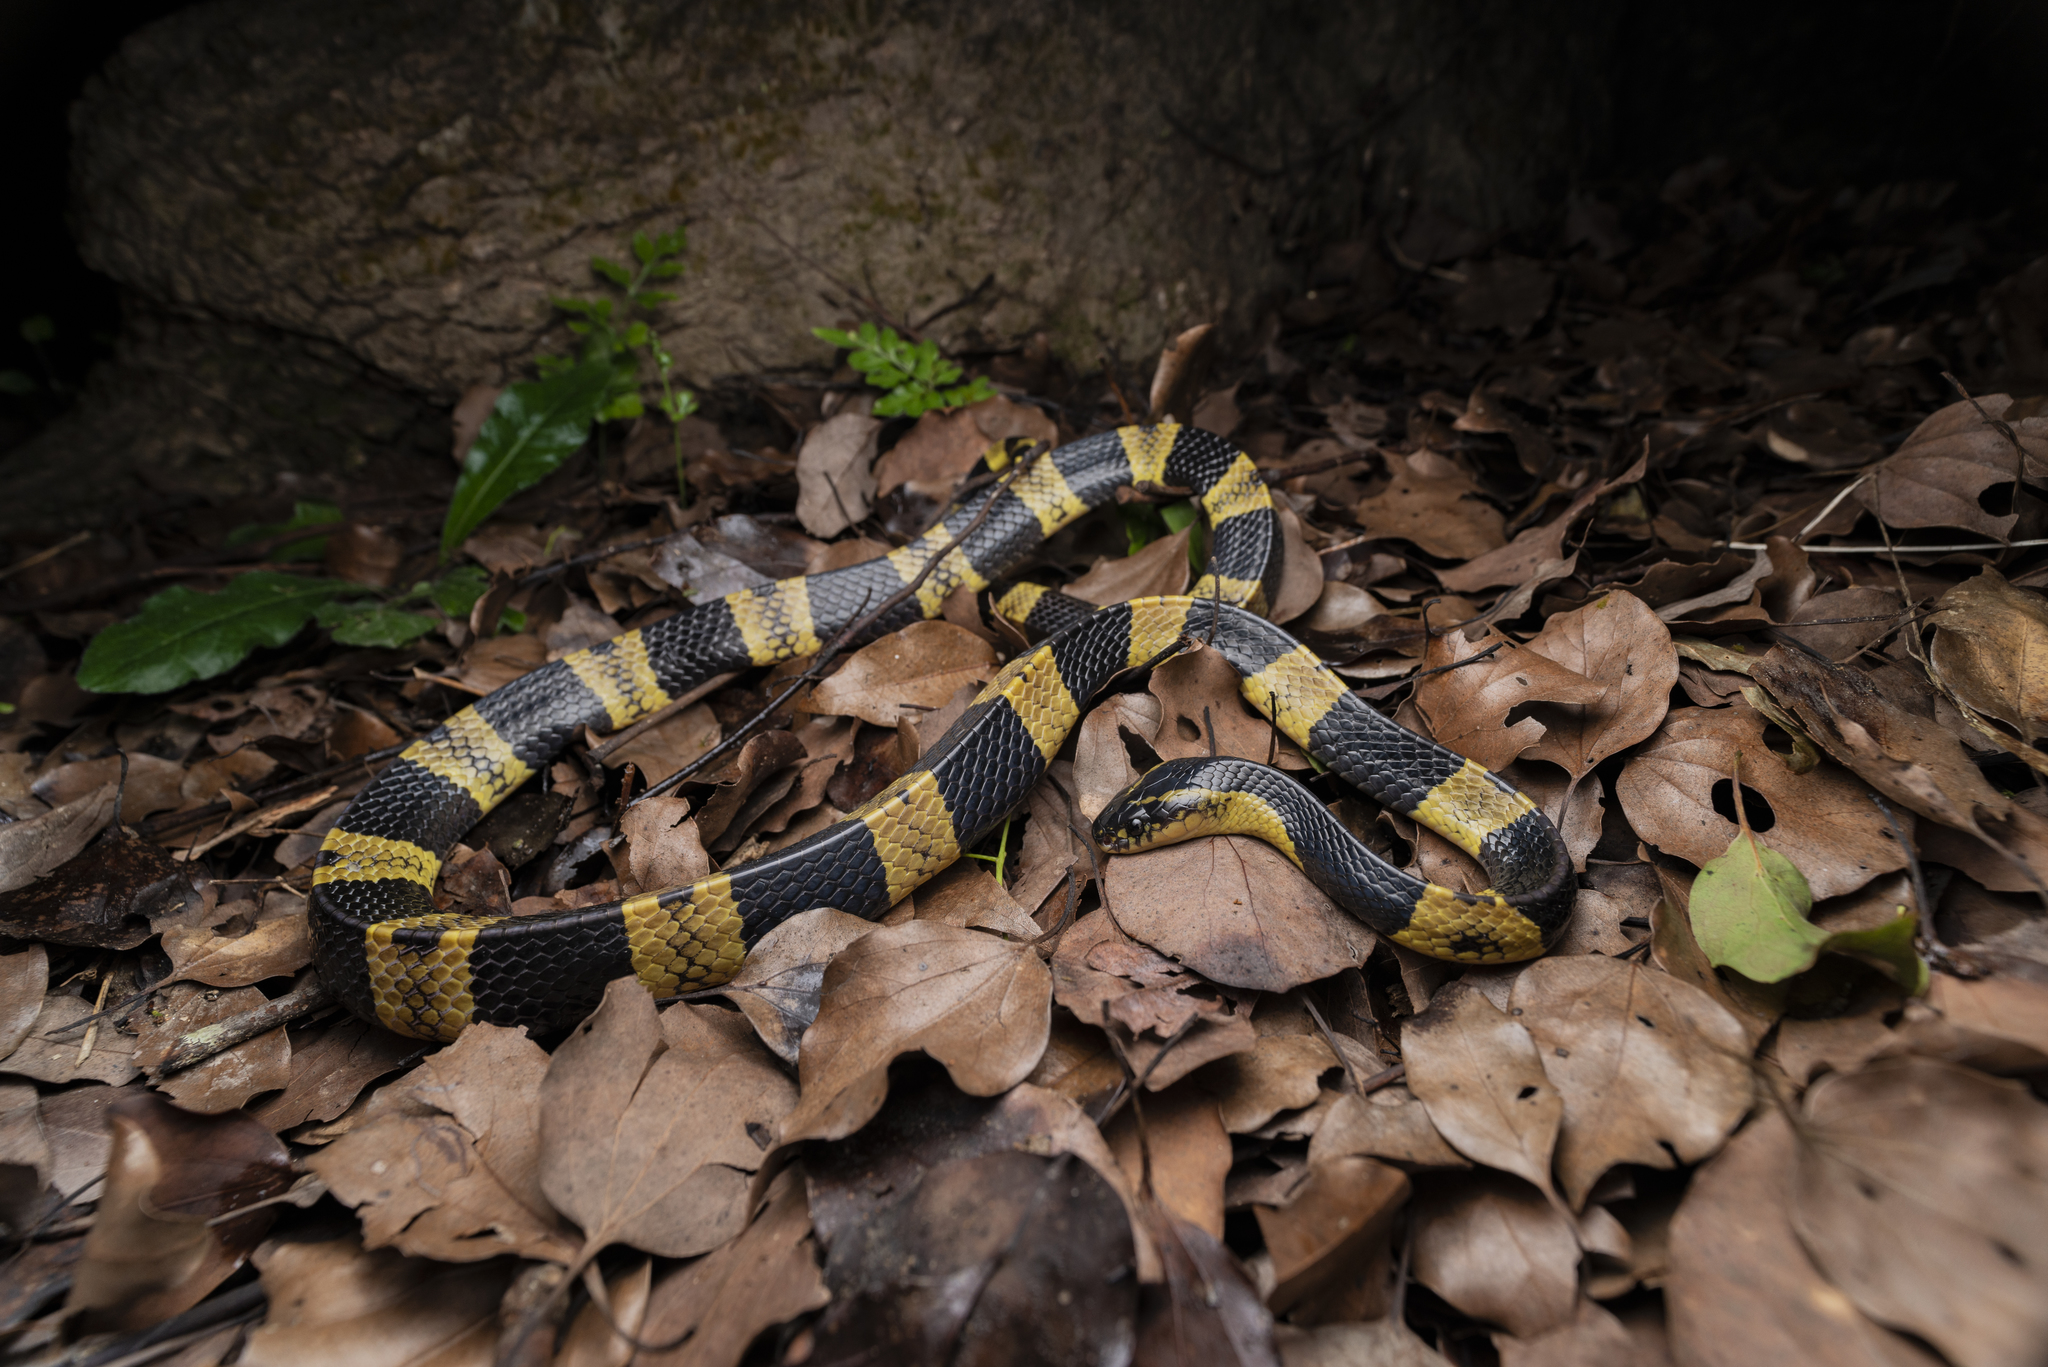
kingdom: Animalia
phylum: Chordata
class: Squamata
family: Elapidae
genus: Bungarus
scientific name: Bungarus fasciatus
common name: Banded krait
